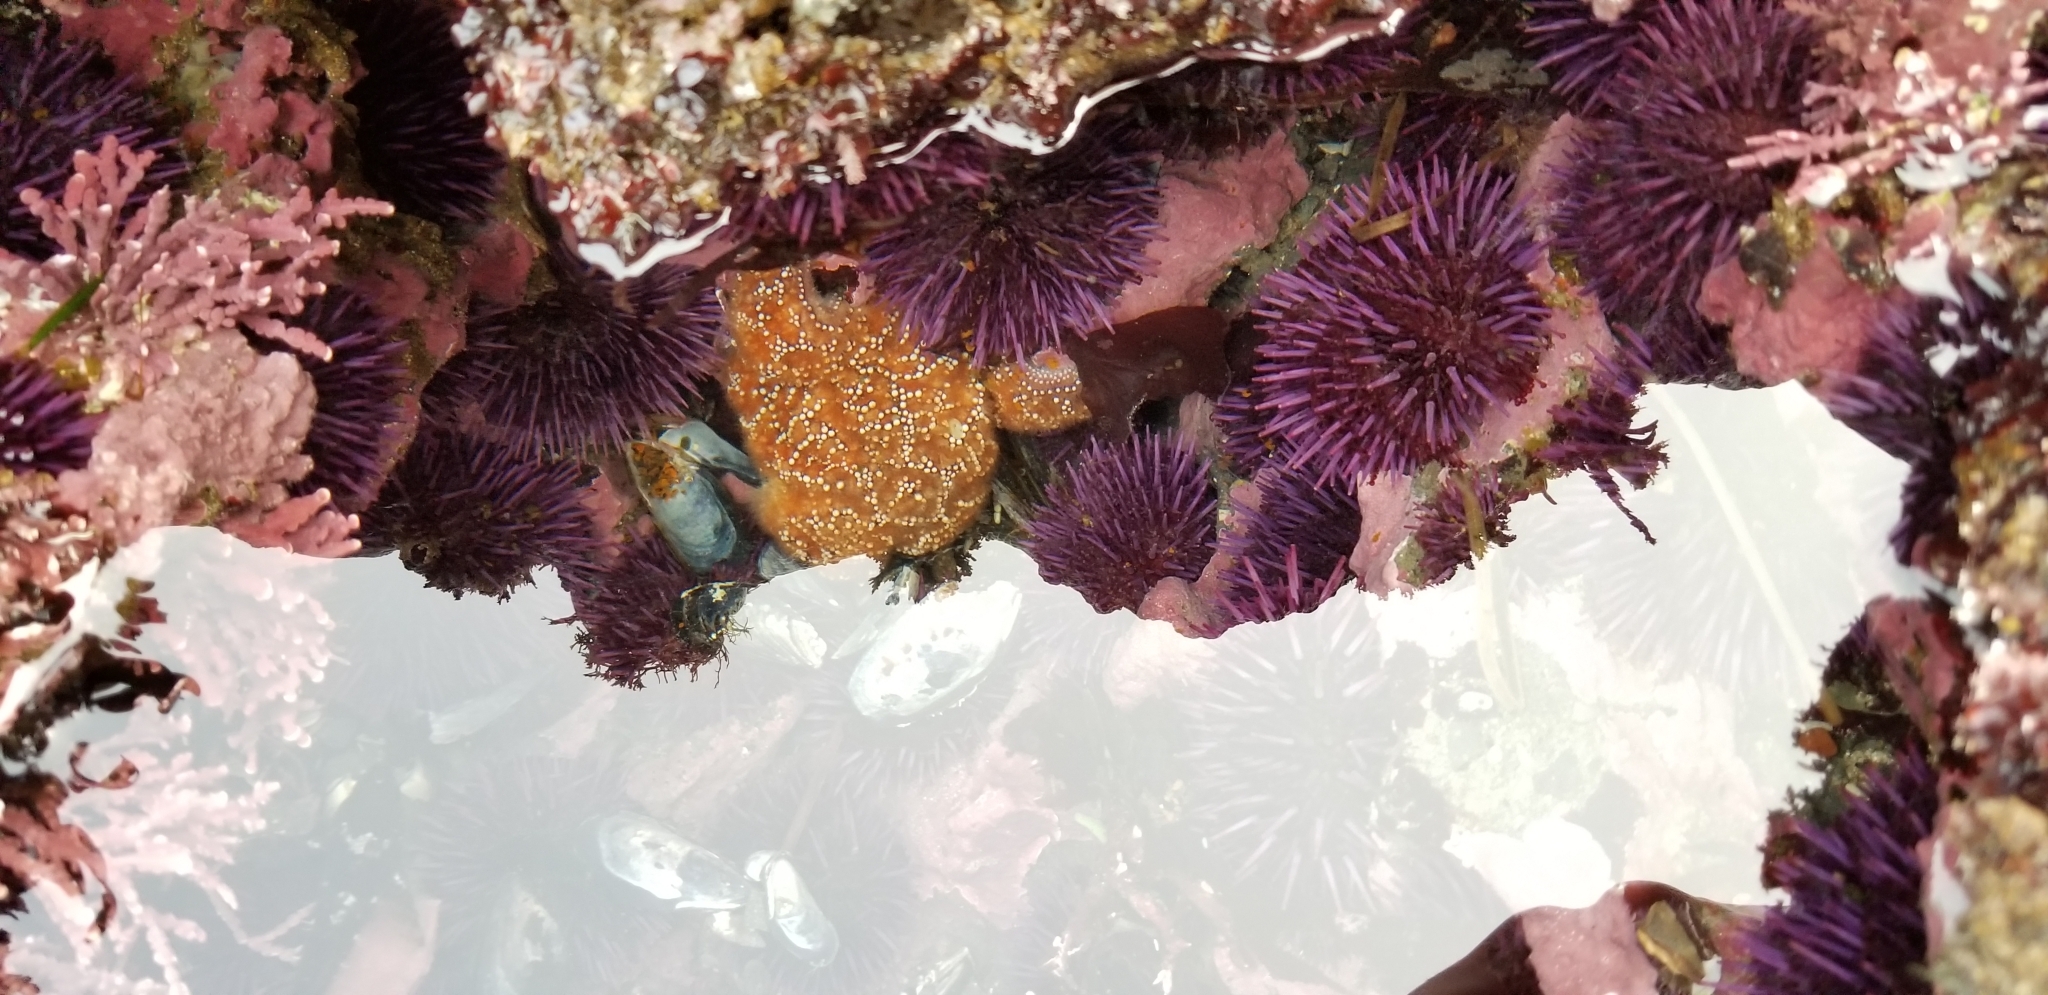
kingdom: Animalia
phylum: Echinodermata
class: Asteroidea
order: Forcipulatida
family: Asteriidae
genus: Pisaster
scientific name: Pisaster ochraceus
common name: Ochre stars
